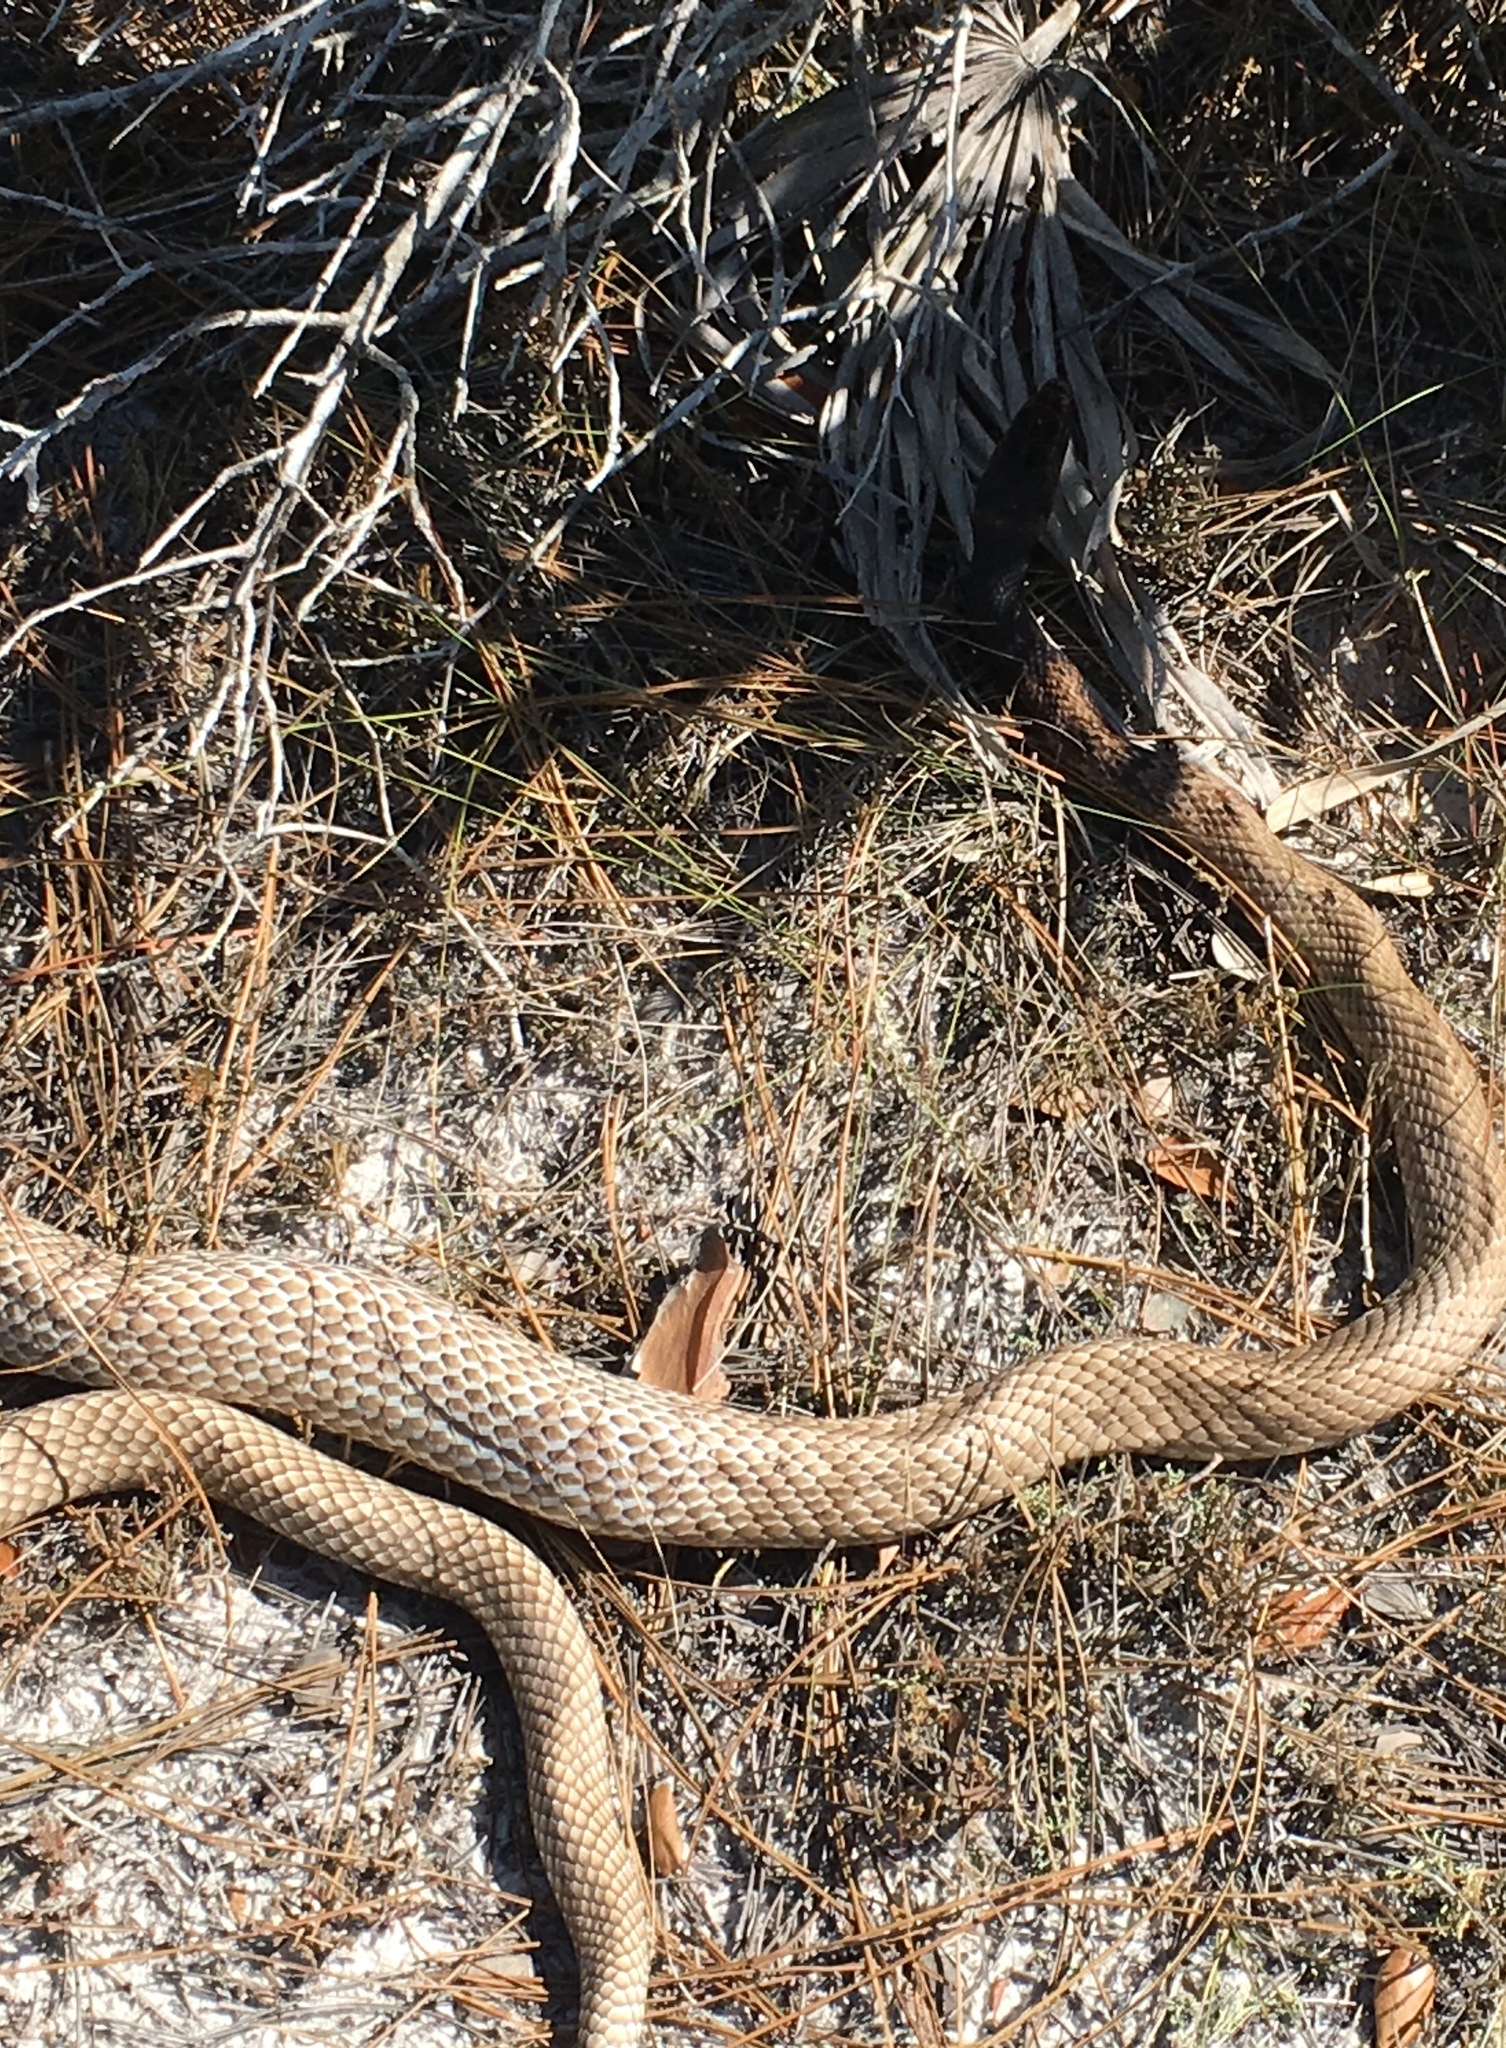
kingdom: Animalia
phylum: Chordata
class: Squamata
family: Colubridae
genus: Masticophis
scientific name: Masticophis flagellum
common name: Coachwhip
